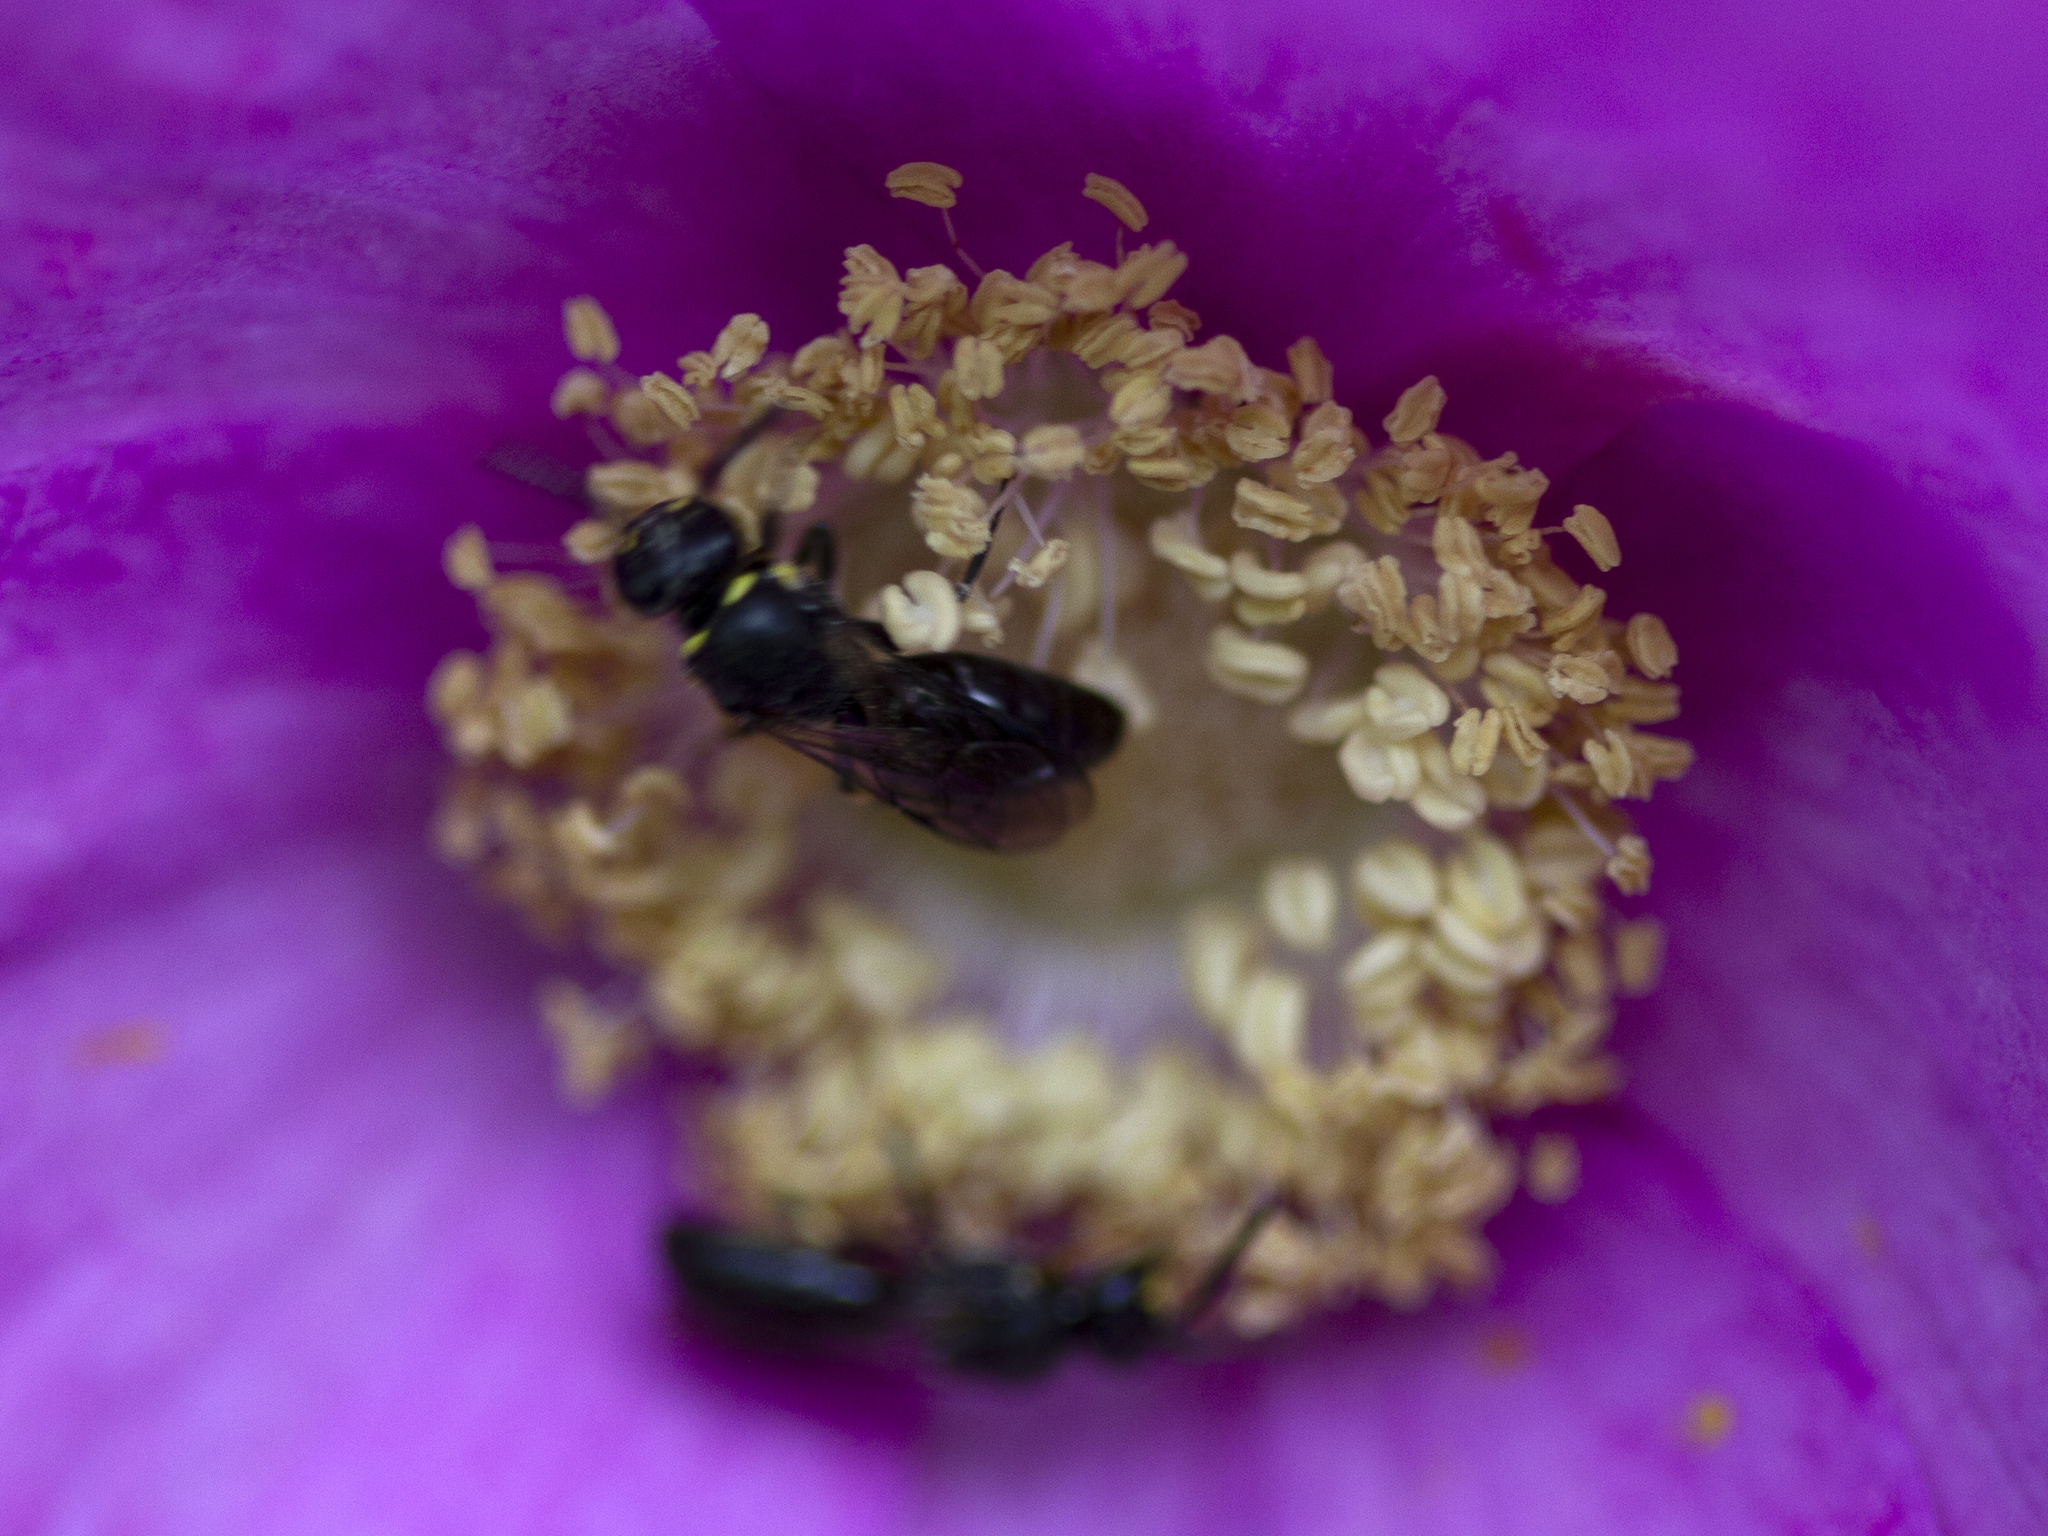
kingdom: Animalia
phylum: Arthropoda
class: Insecta
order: Hymenoptera
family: Colletidae
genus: Hylaeus
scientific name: Hylaeus modestus
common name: Yellow-faced bee
